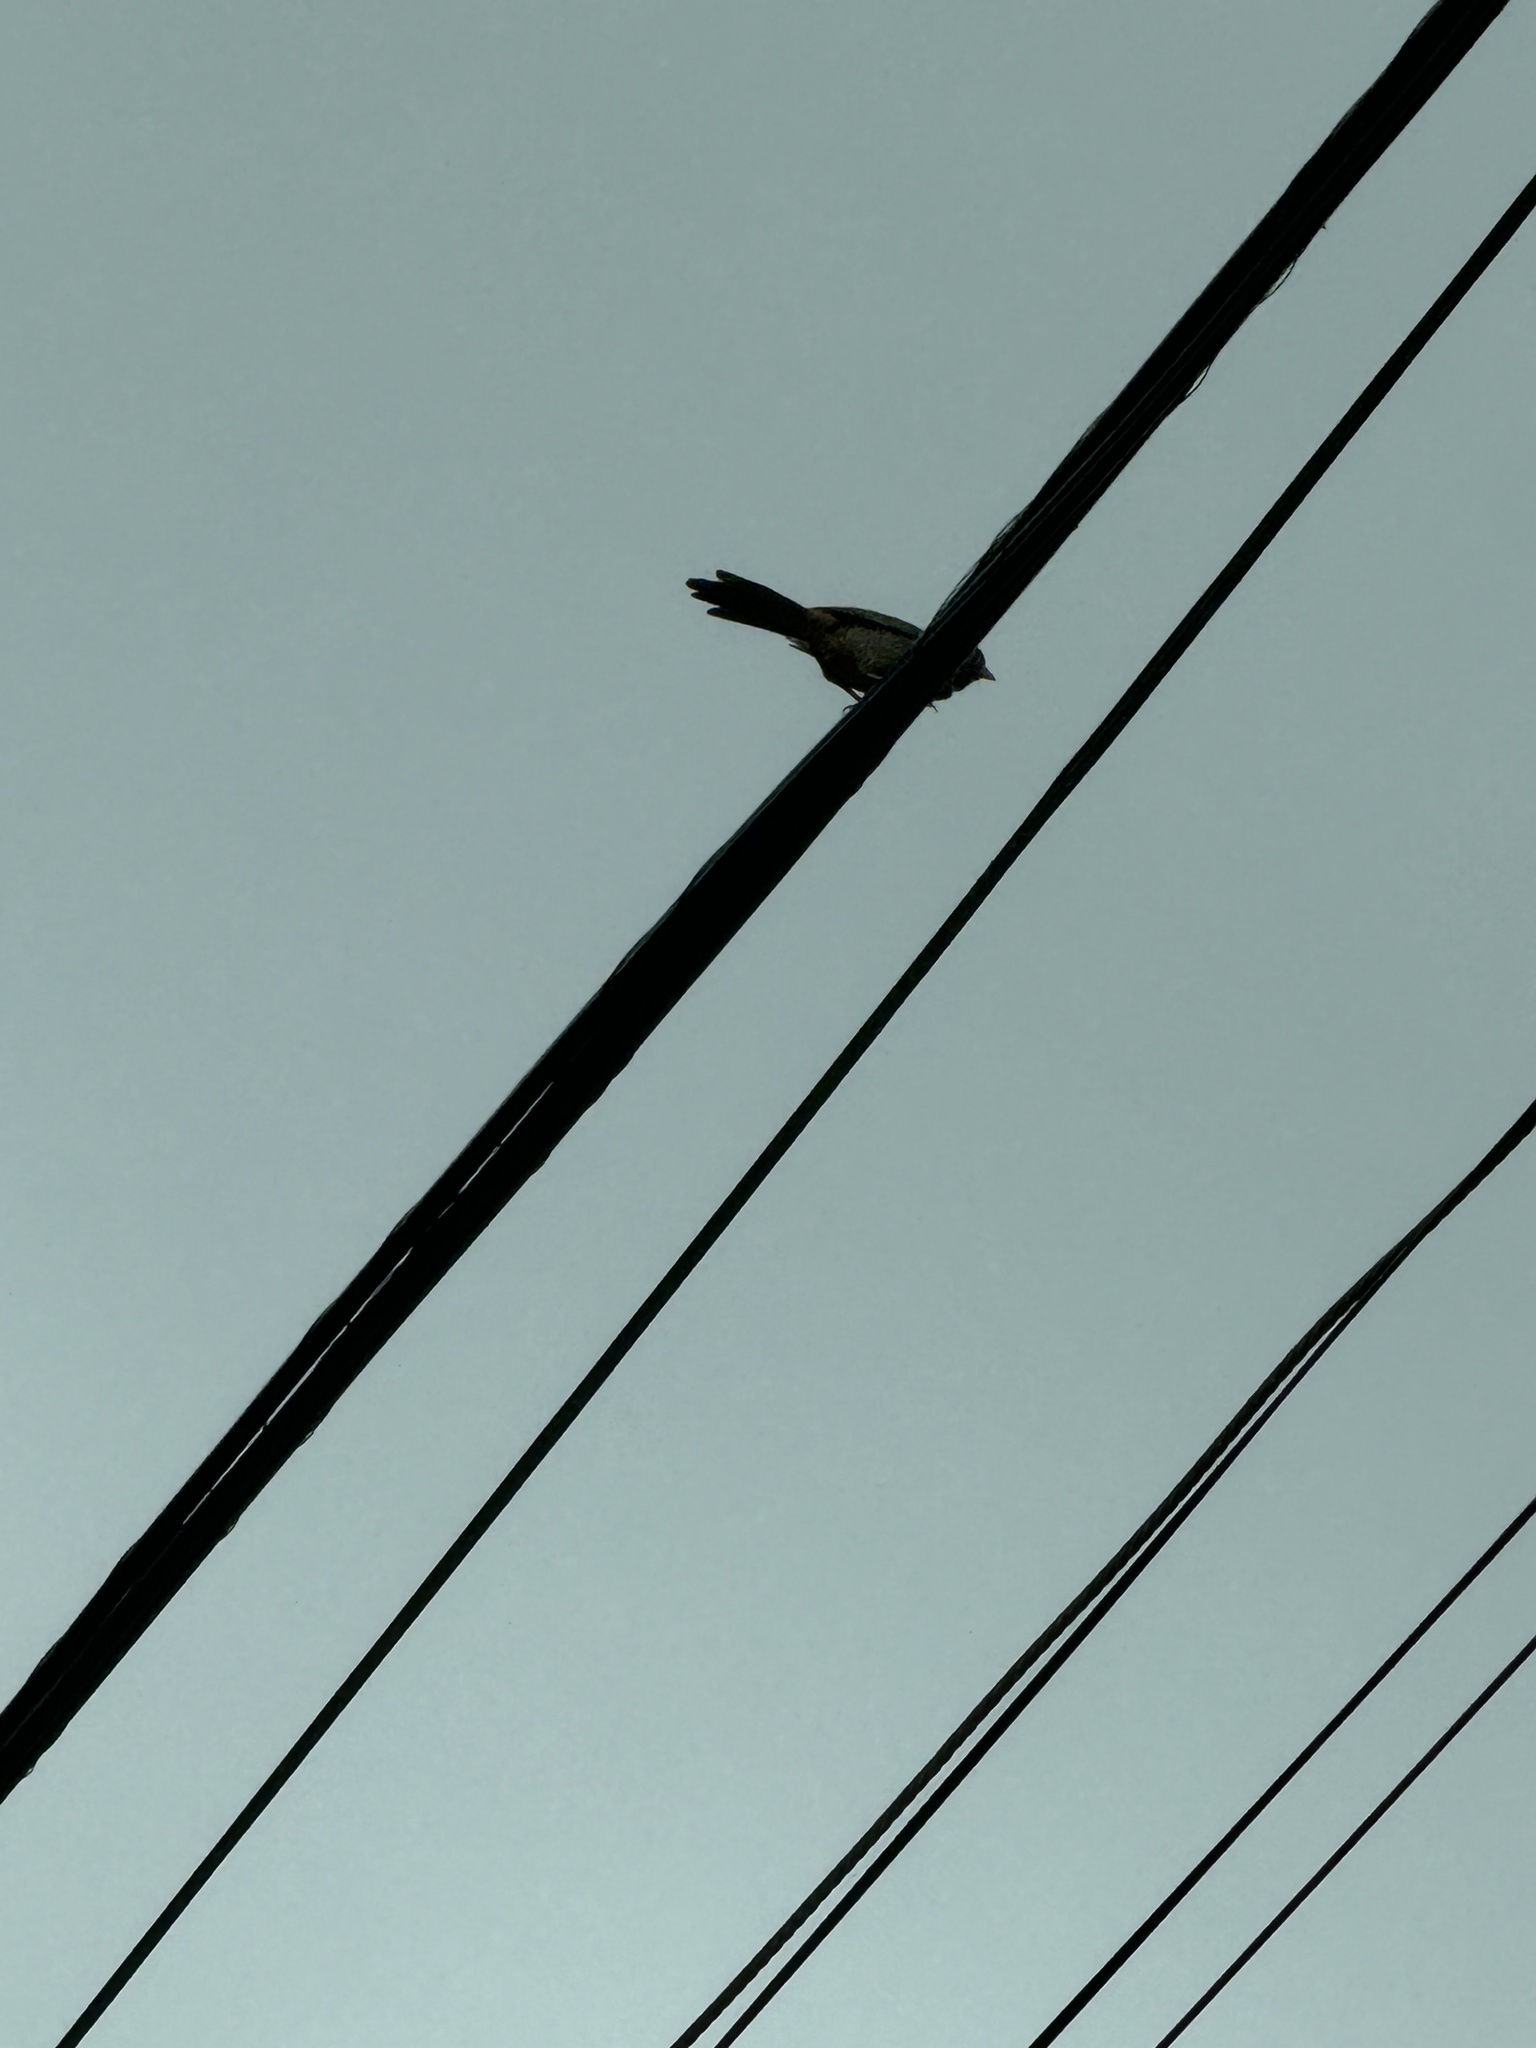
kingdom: Animalia
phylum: Chordata
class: Aves
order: Passeriformes
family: Passerellidae
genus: Melozone
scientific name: Melozone crissalis
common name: California towhee
